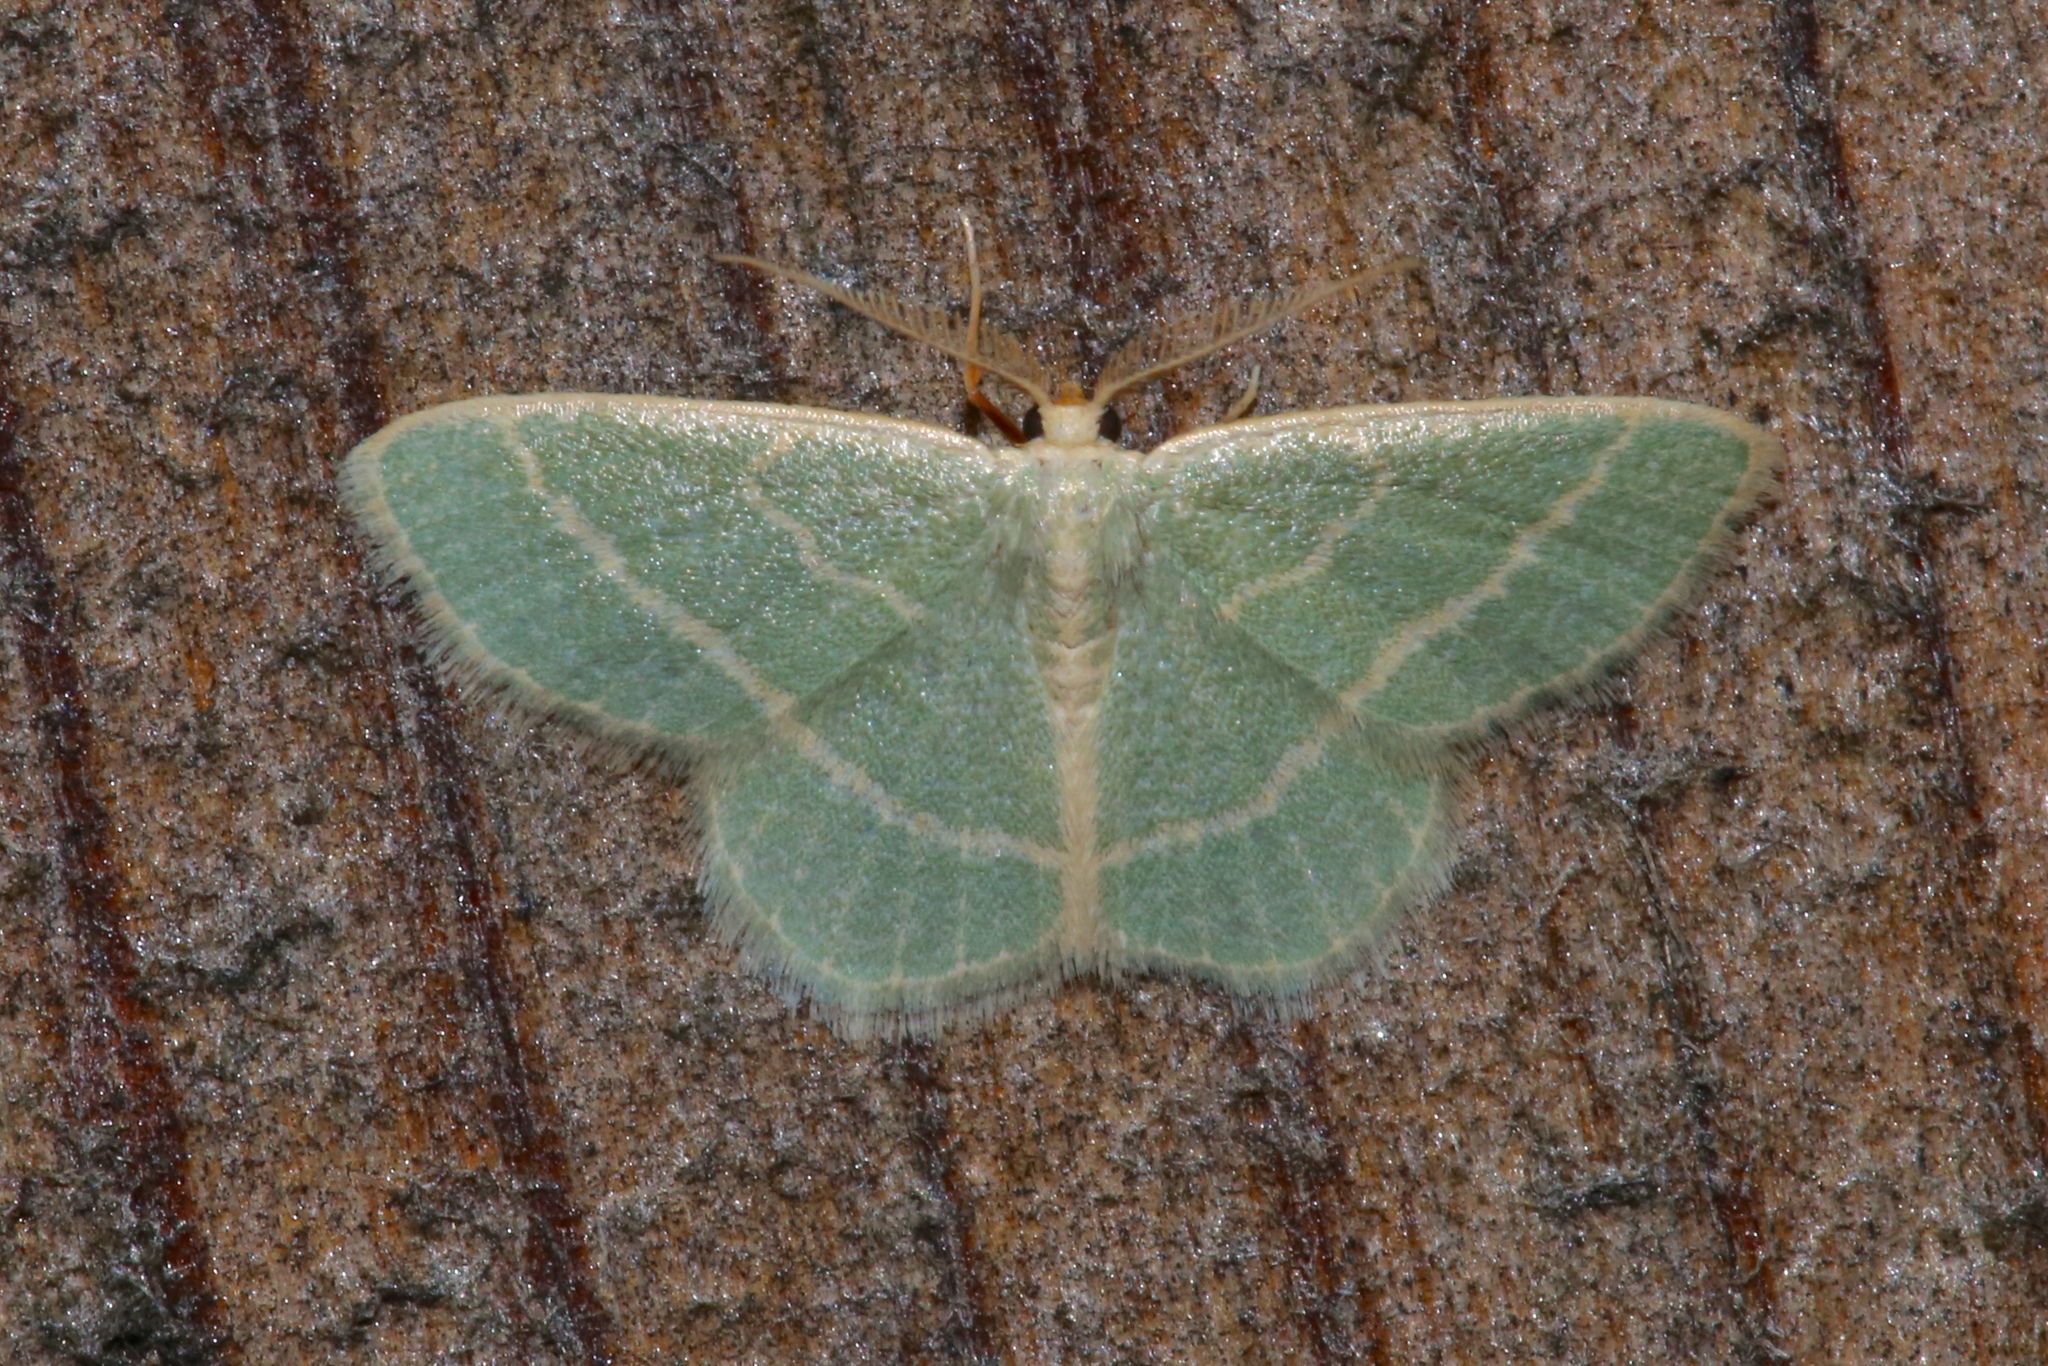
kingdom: Animalia
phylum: Arthropoda
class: Insecta
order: Lepidoptera
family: Geometridae
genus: Chlorochlamys
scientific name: Chlorochlamys chloroleucaria
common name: Blackberry looper
